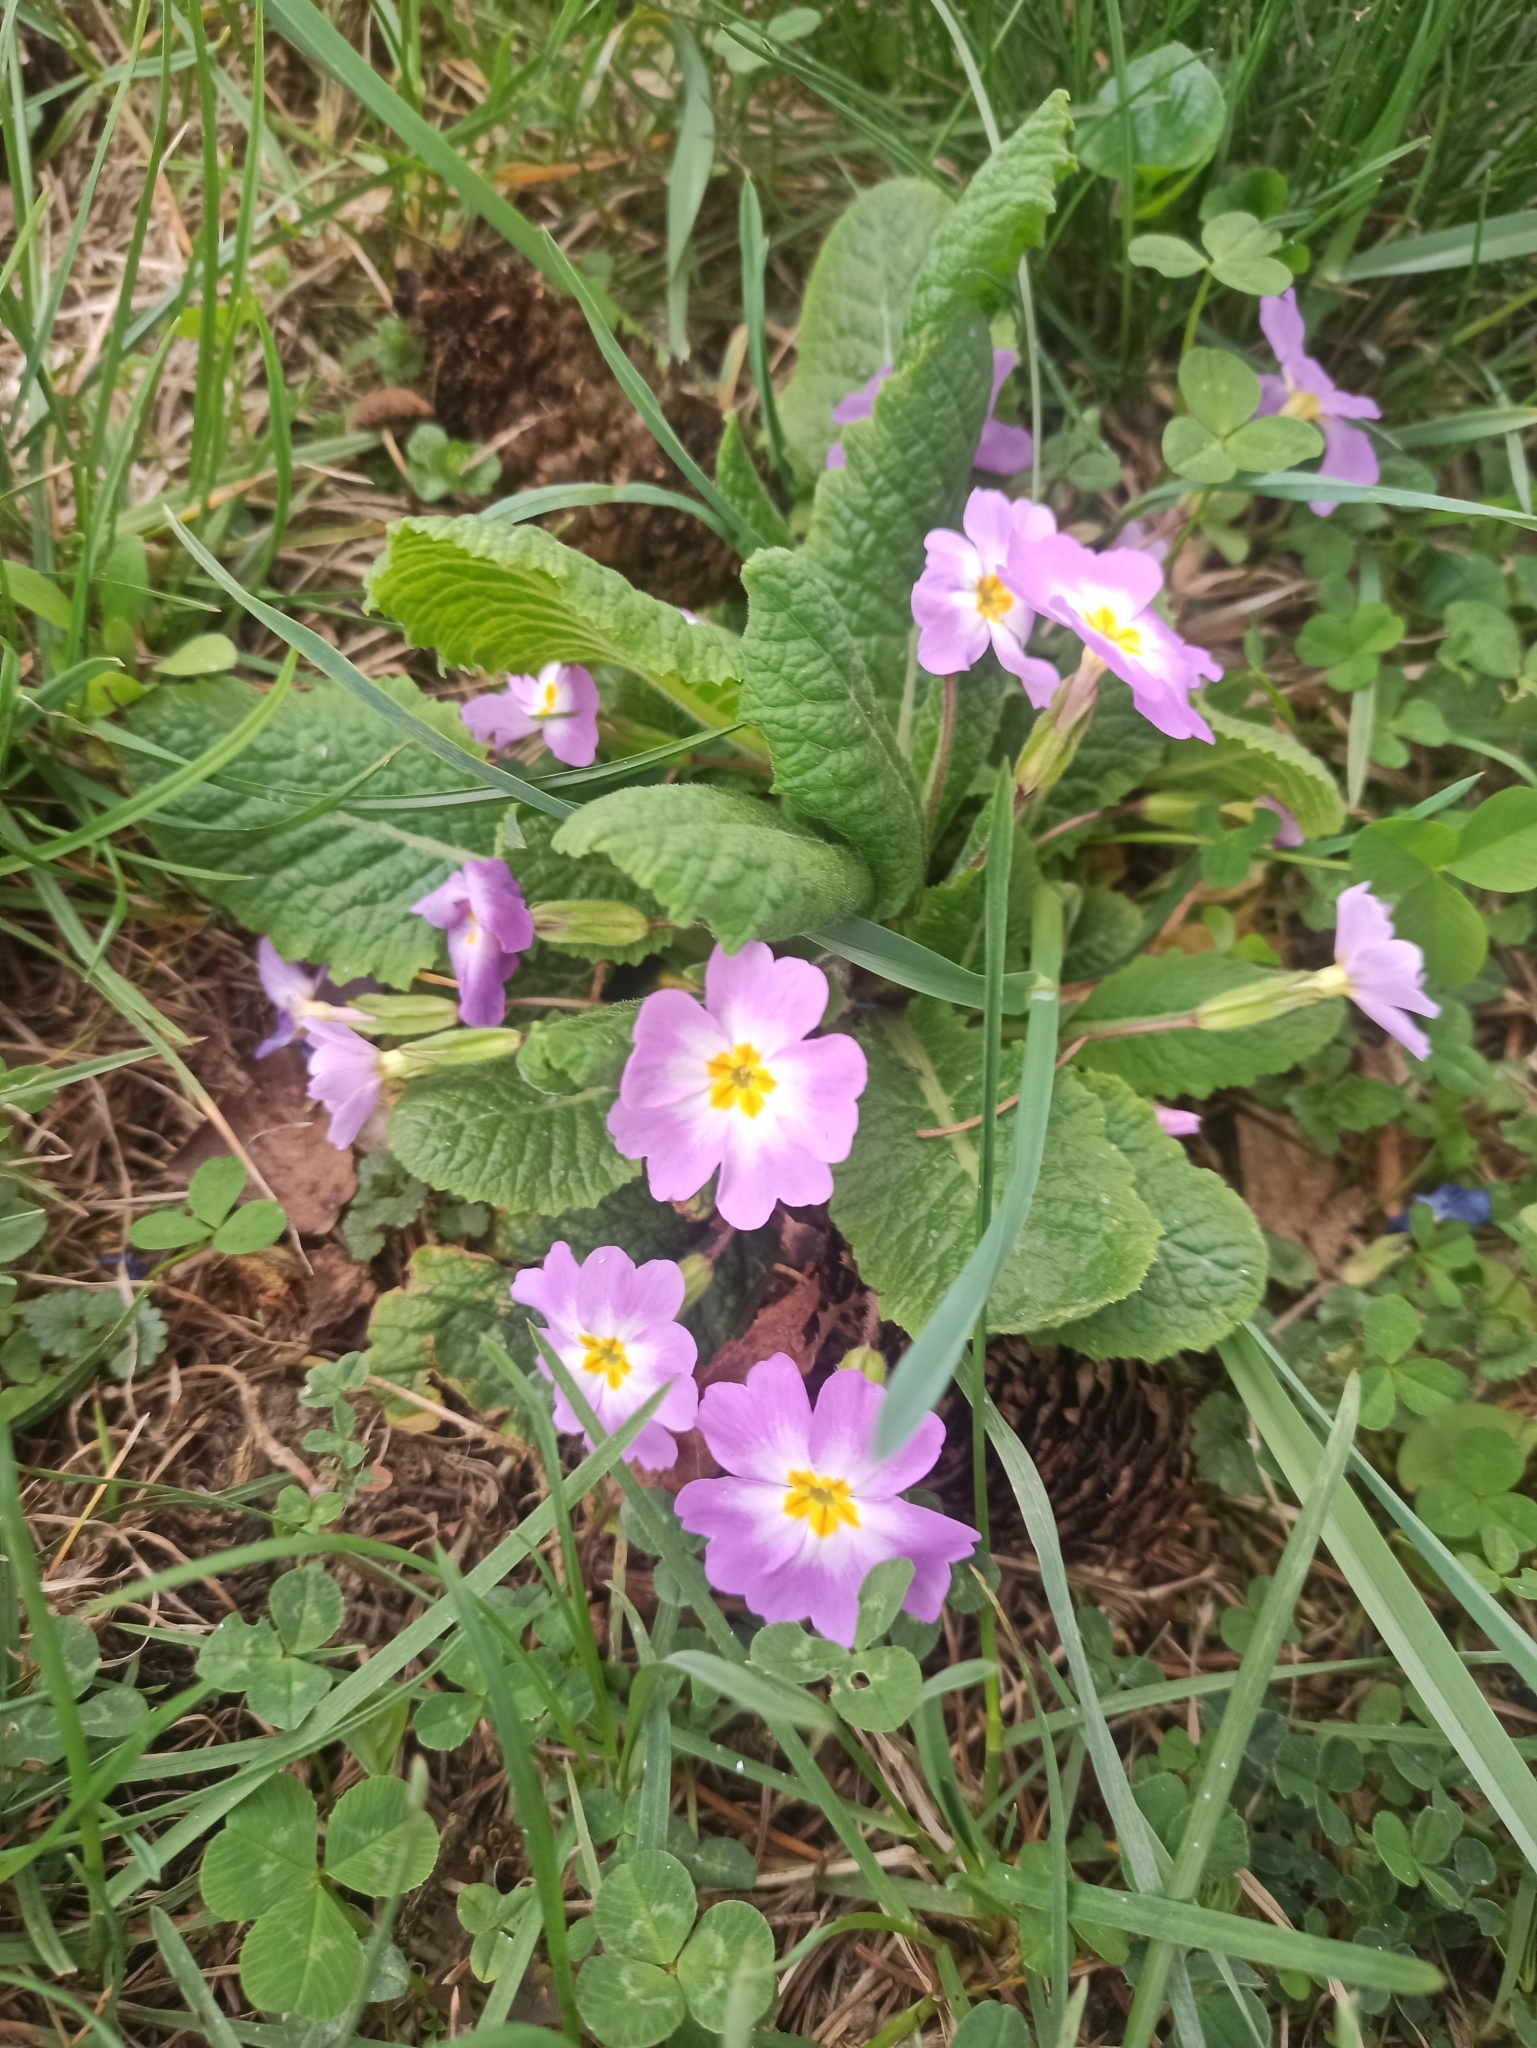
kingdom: Plantae
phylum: Tracheophyta
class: Magnoliopsida
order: Ericales
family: Primulaceae
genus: Primula
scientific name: Primula vulgaris
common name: Primrose
